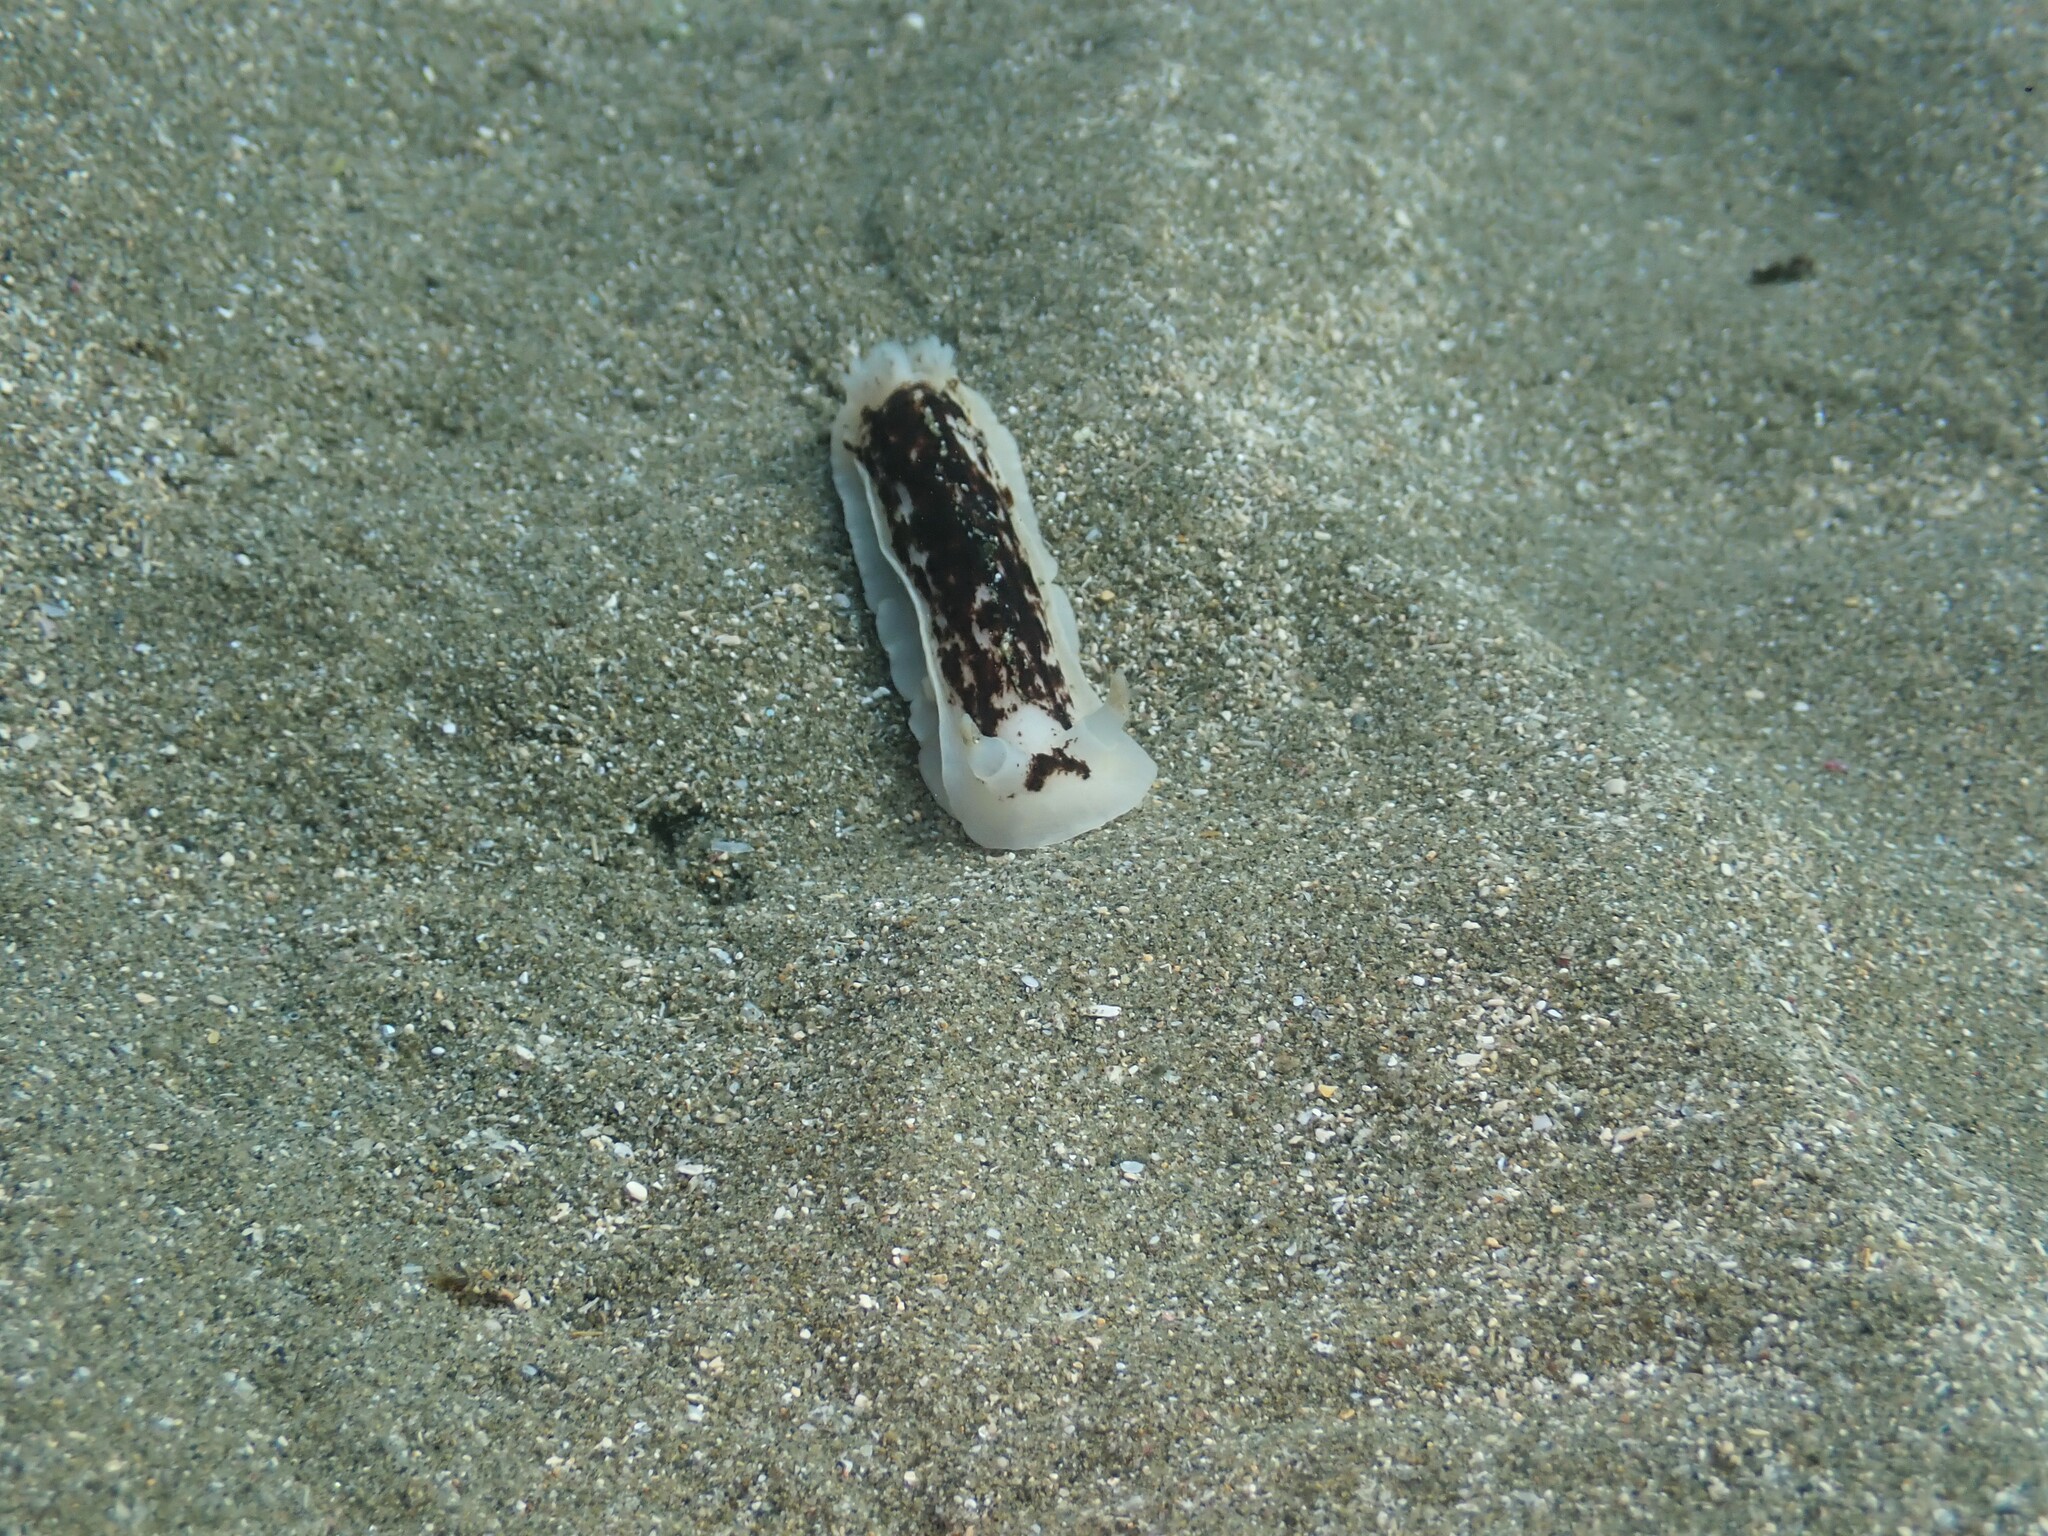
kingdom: Animalia
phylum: Mollusca
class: Gastropoda
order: Nudibranchia
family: Dorididae
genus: Aphelodoris
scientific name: Aphelodoris luctuosa
